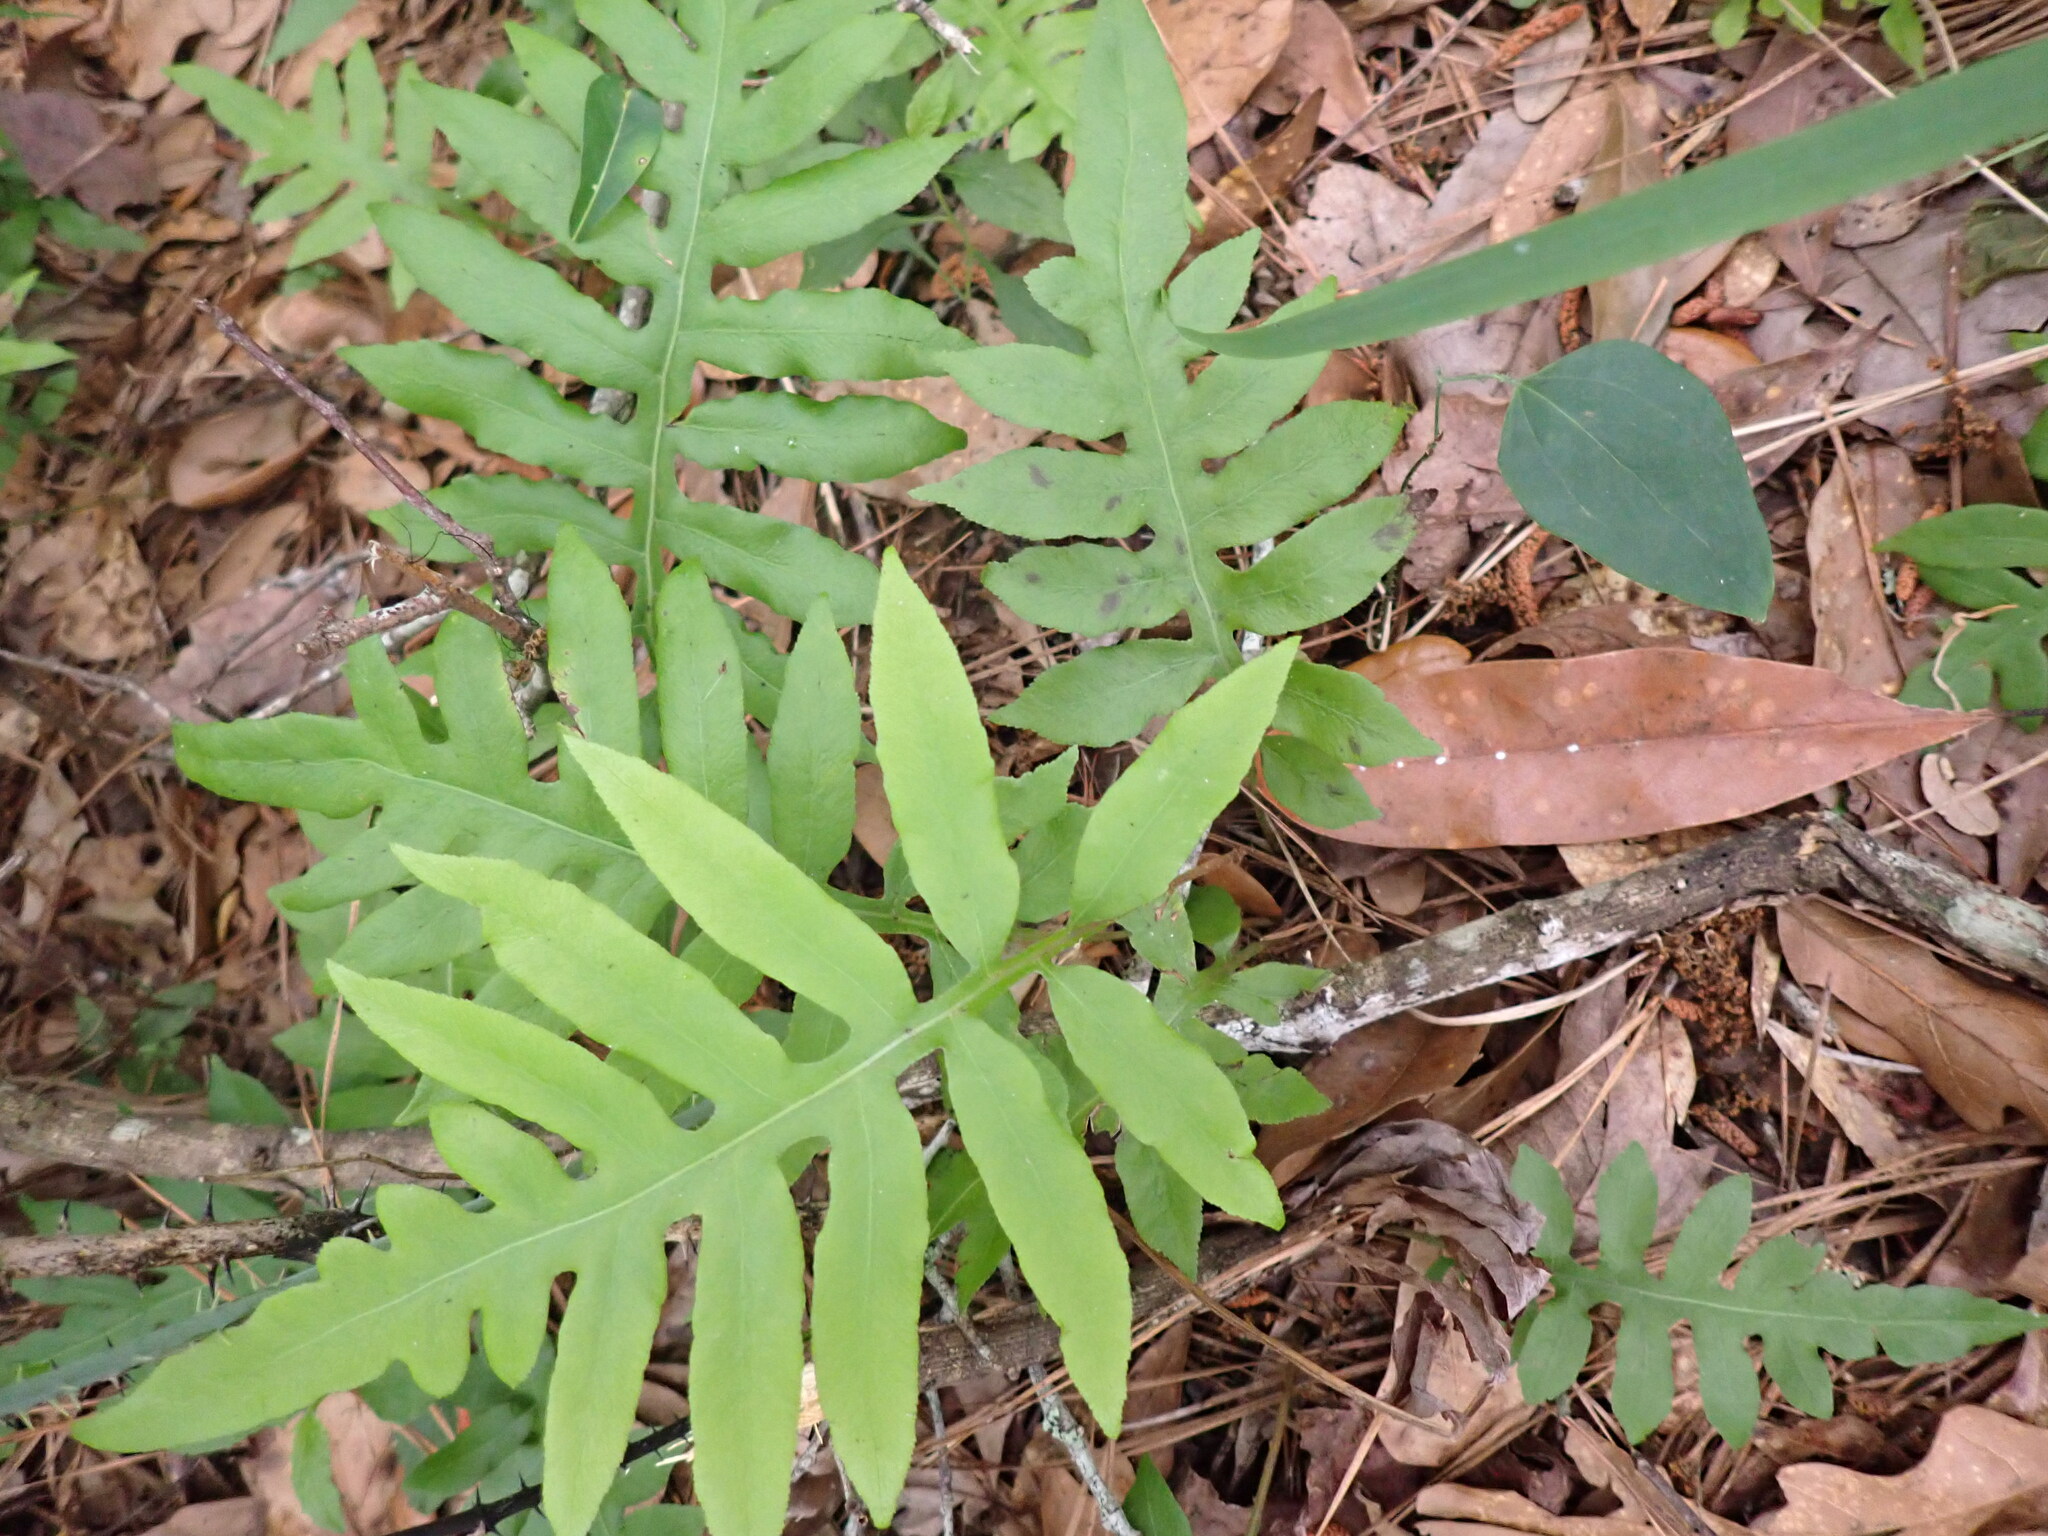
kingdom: Plantae
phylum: Tracheophyta
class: Polypodiopsida
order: Polypodiales
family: Blechnaceae
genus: Lorinseria
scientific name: Lorinseria areolata
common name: Dwarf chain fern
